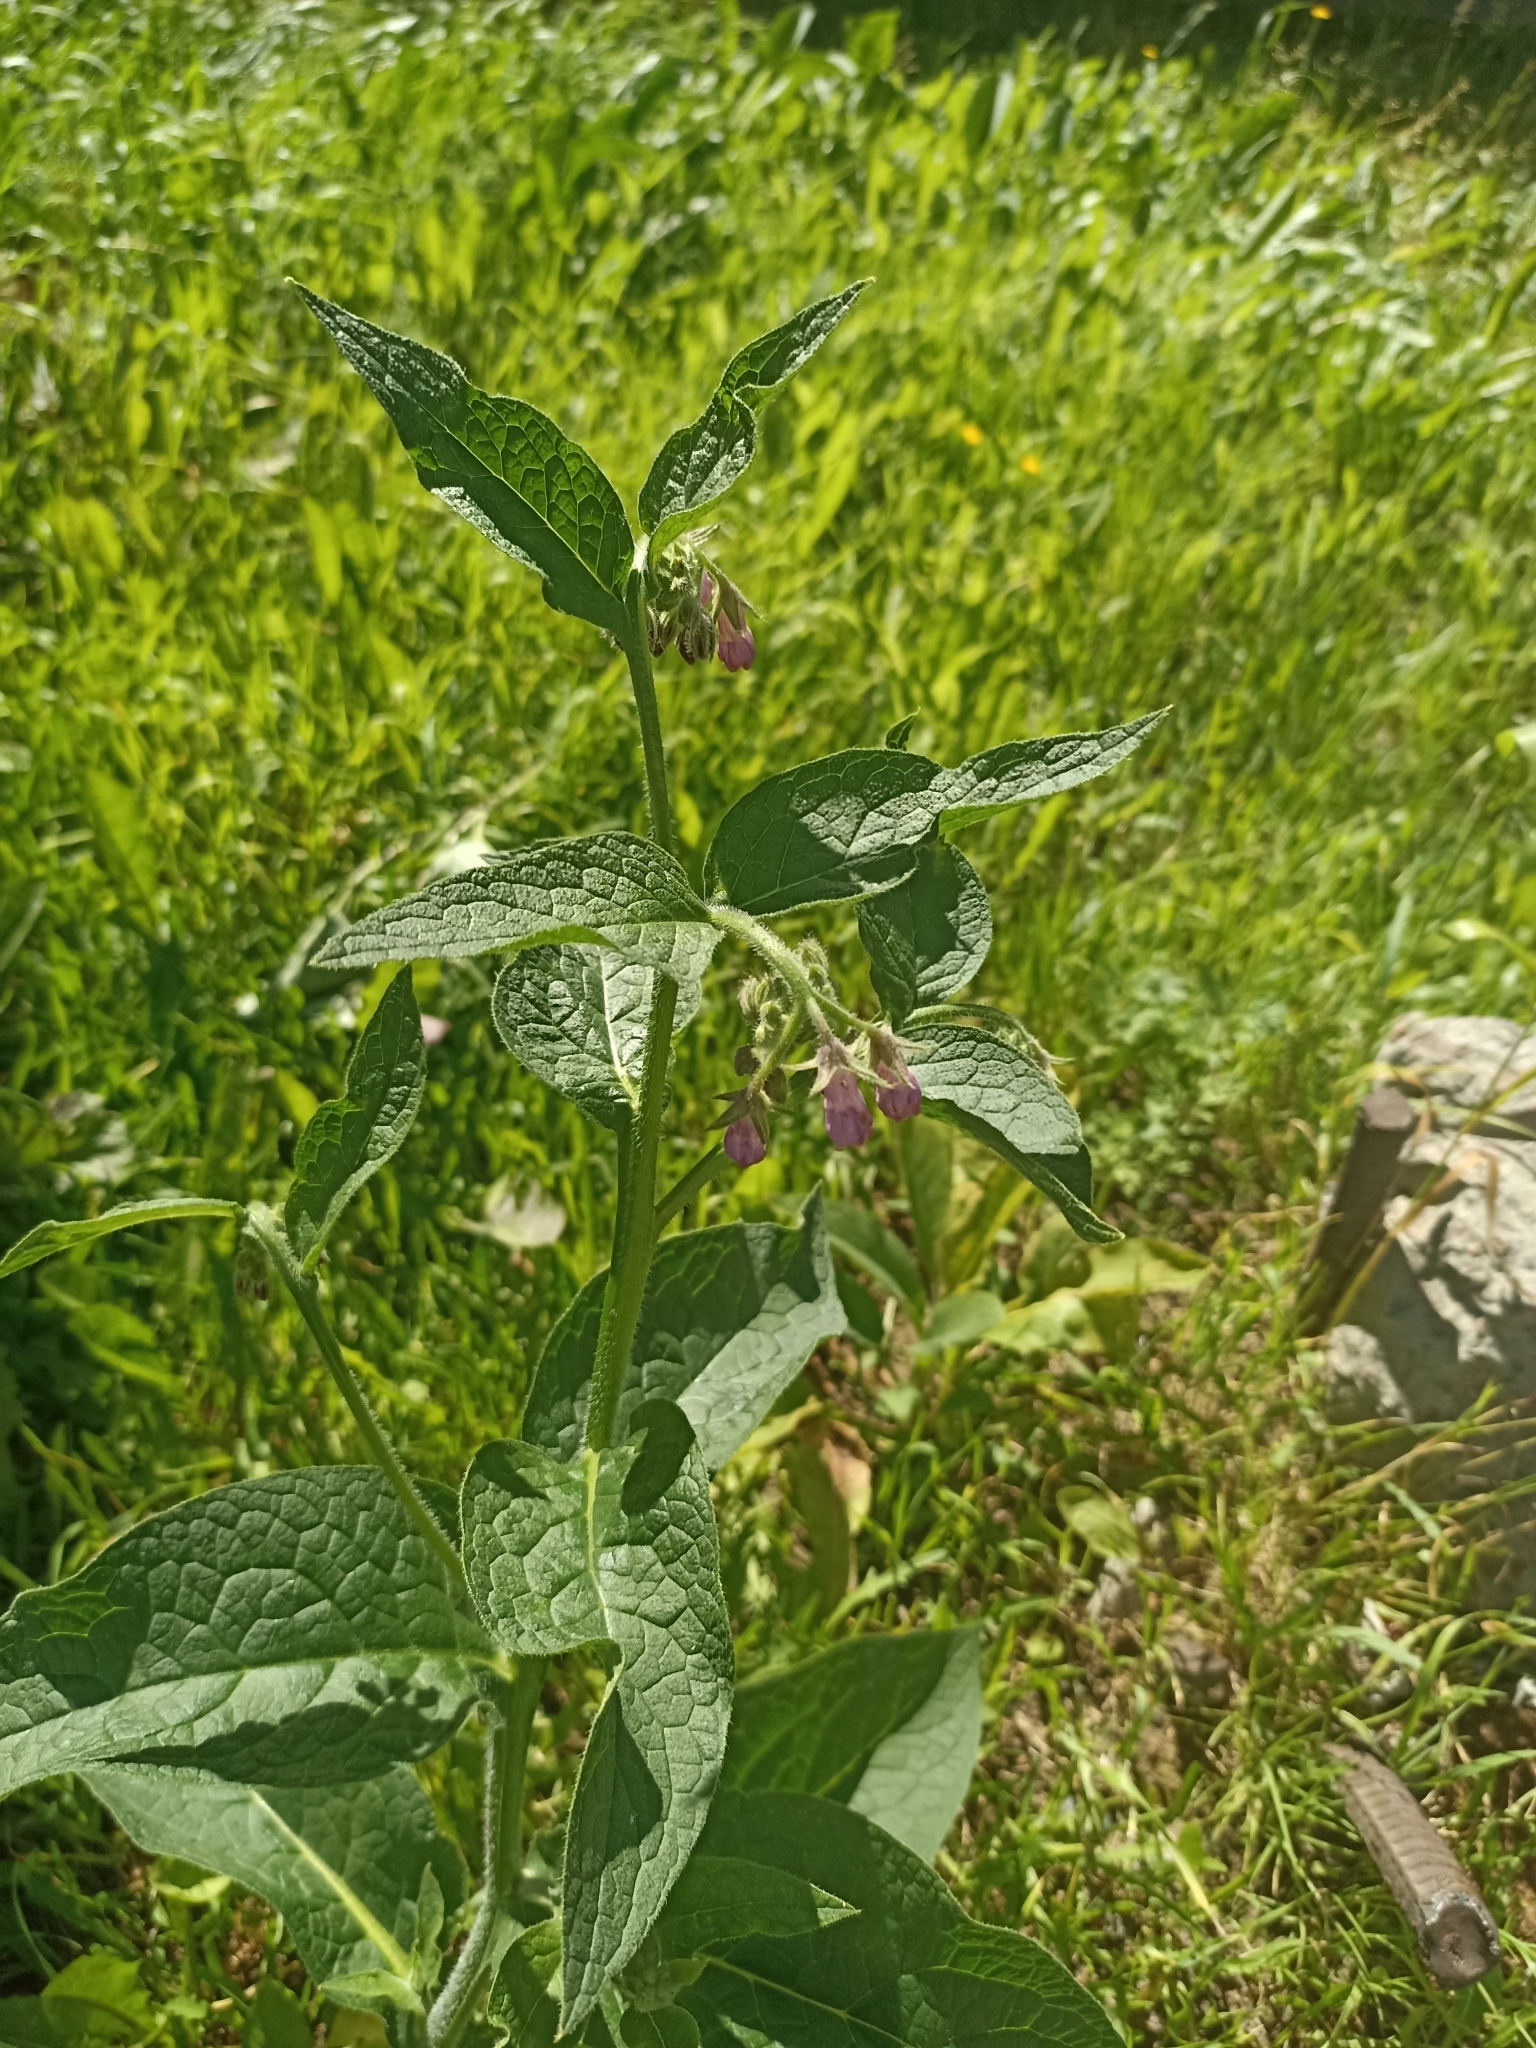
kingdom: Plantae
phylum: Tracheophyta
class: Magnoliopsida
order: Boraginales
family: Boraginaceae
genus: Symphytum
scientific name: Symphytum officinale
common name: Common comfrey
